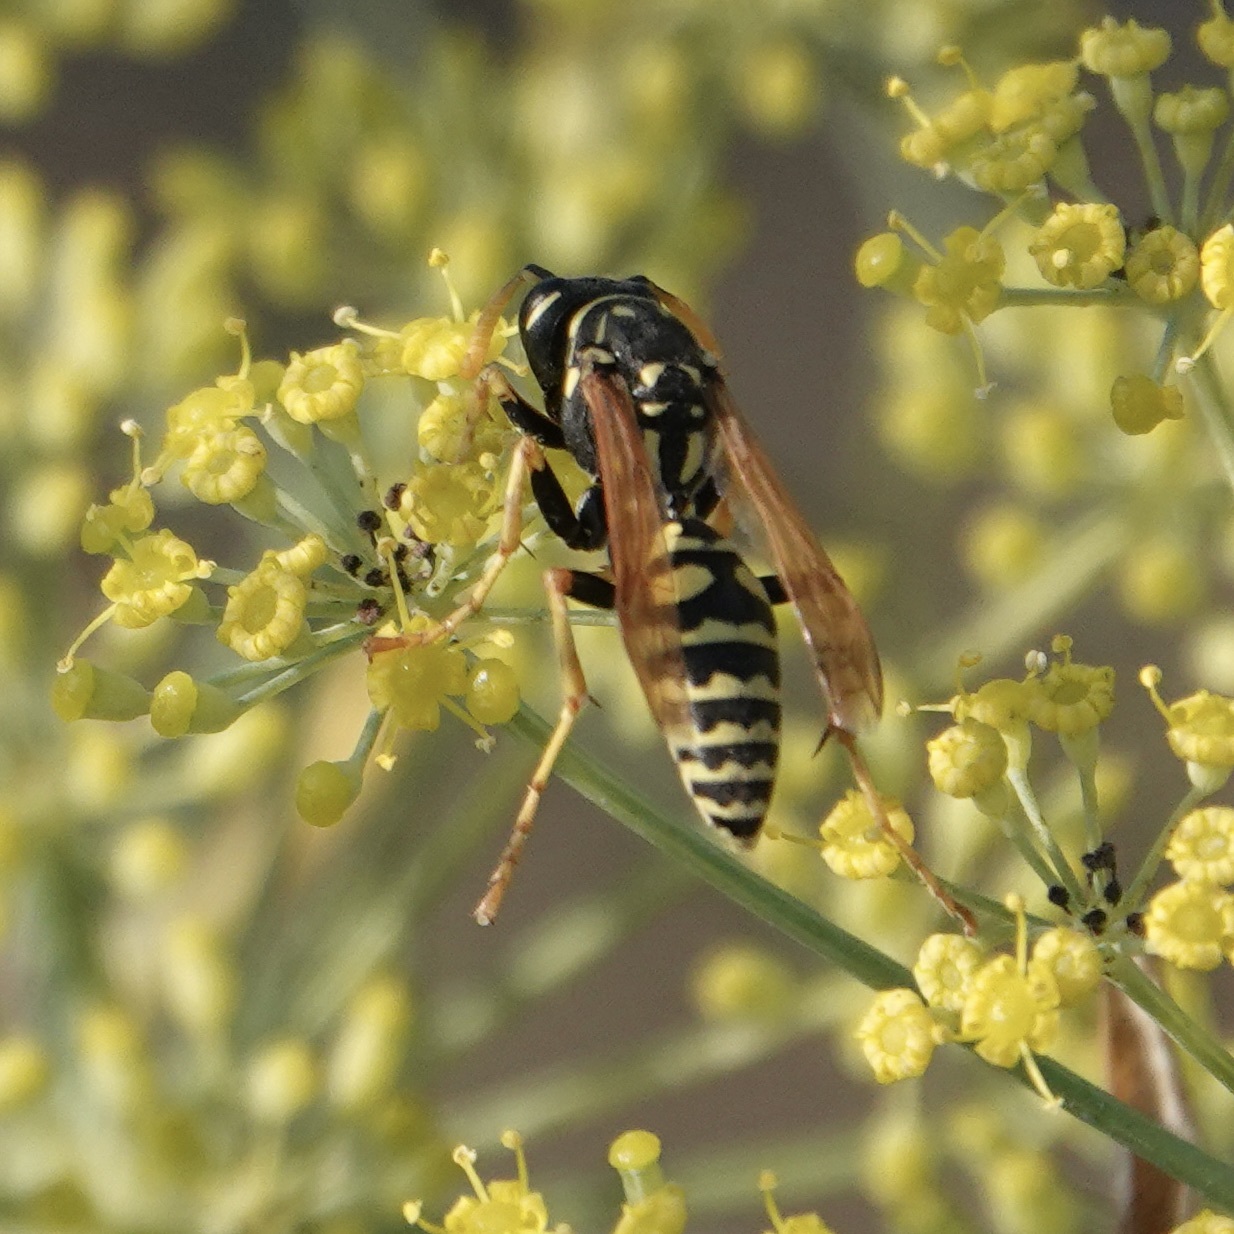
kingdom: Animalia
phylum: Arthropoda
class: Insecta
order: Hymenoptera
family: Eumenidae
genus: Polistes
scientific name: Polistes dominula
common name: Paper wasp
